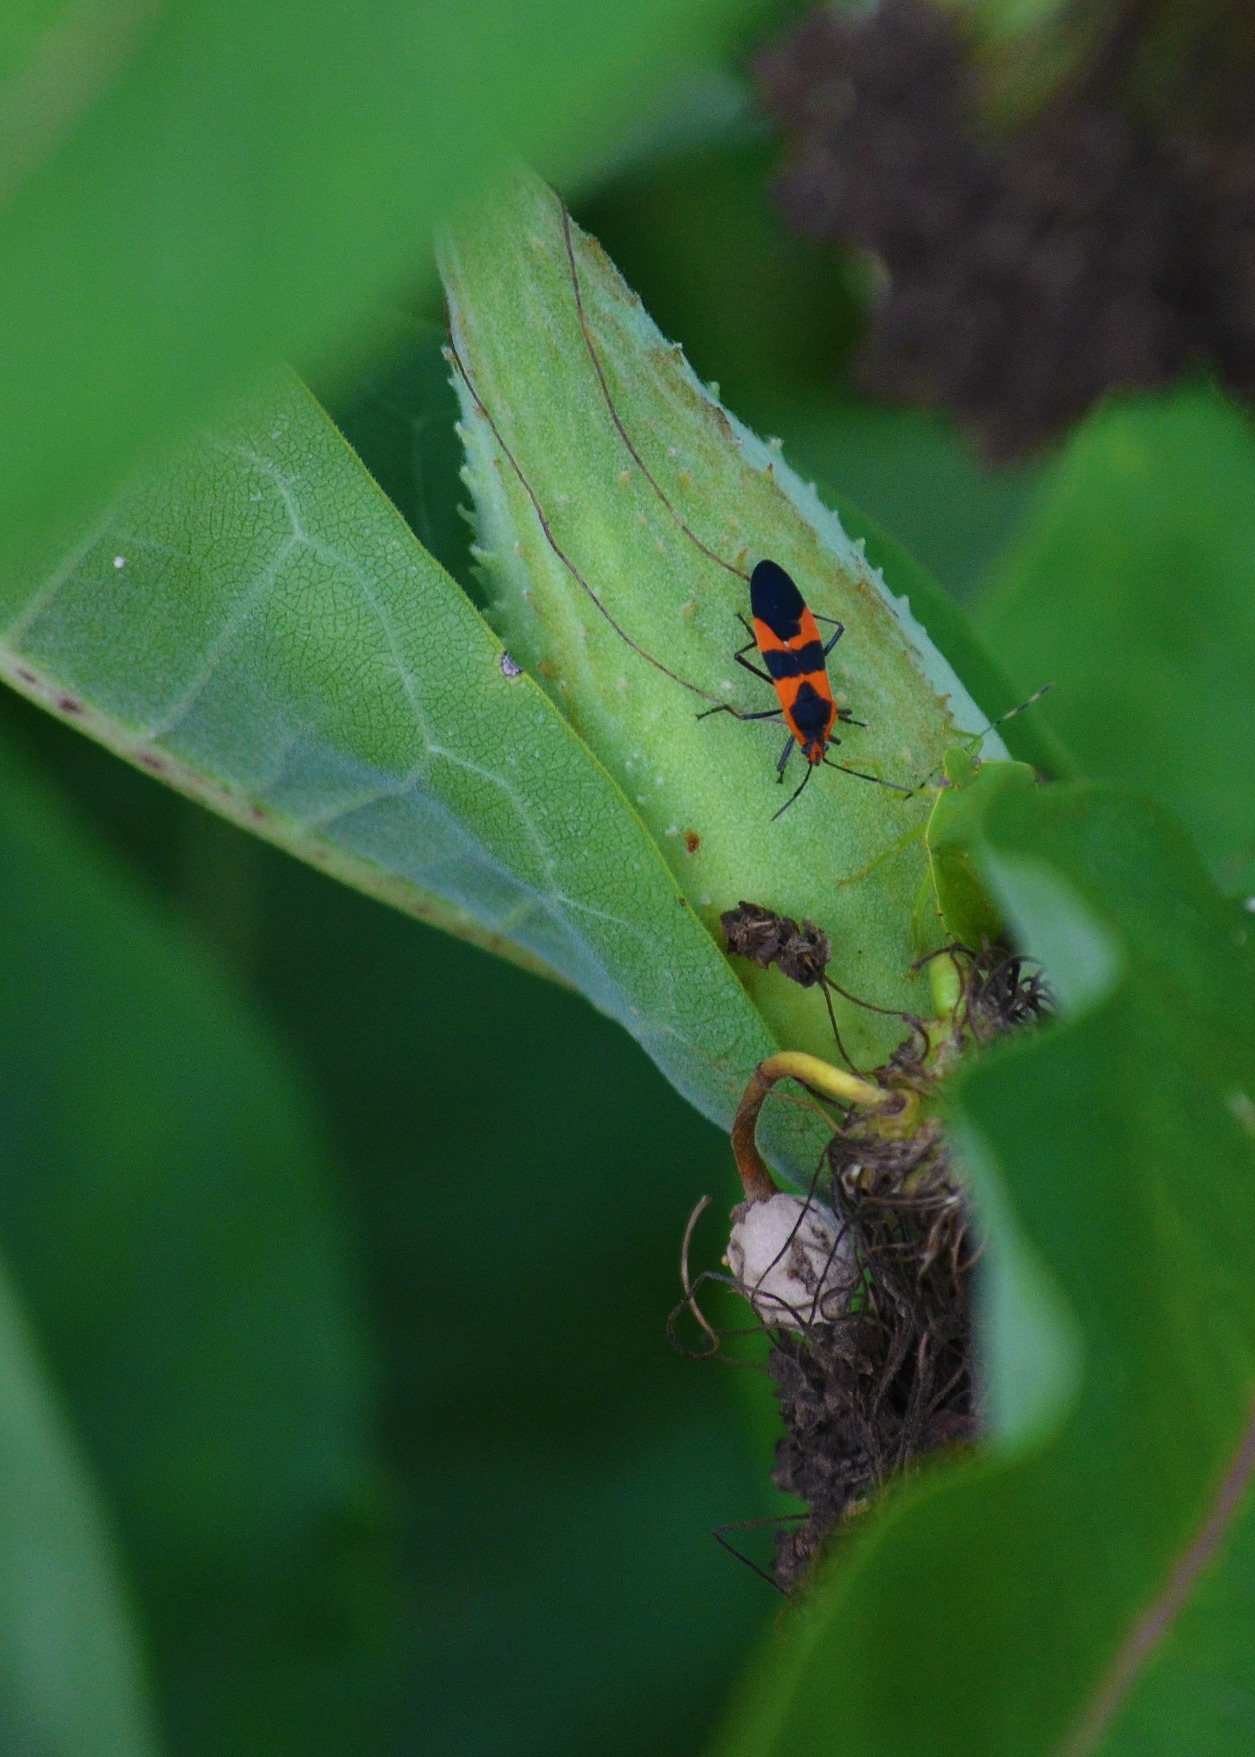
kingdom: Animalia
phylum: Arthropoda
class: Insecta
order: Hemiptera
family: Lygaeidae
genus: Oncopeltus
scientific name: Oncopeltus fasciatus
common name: Large milkweed bug
